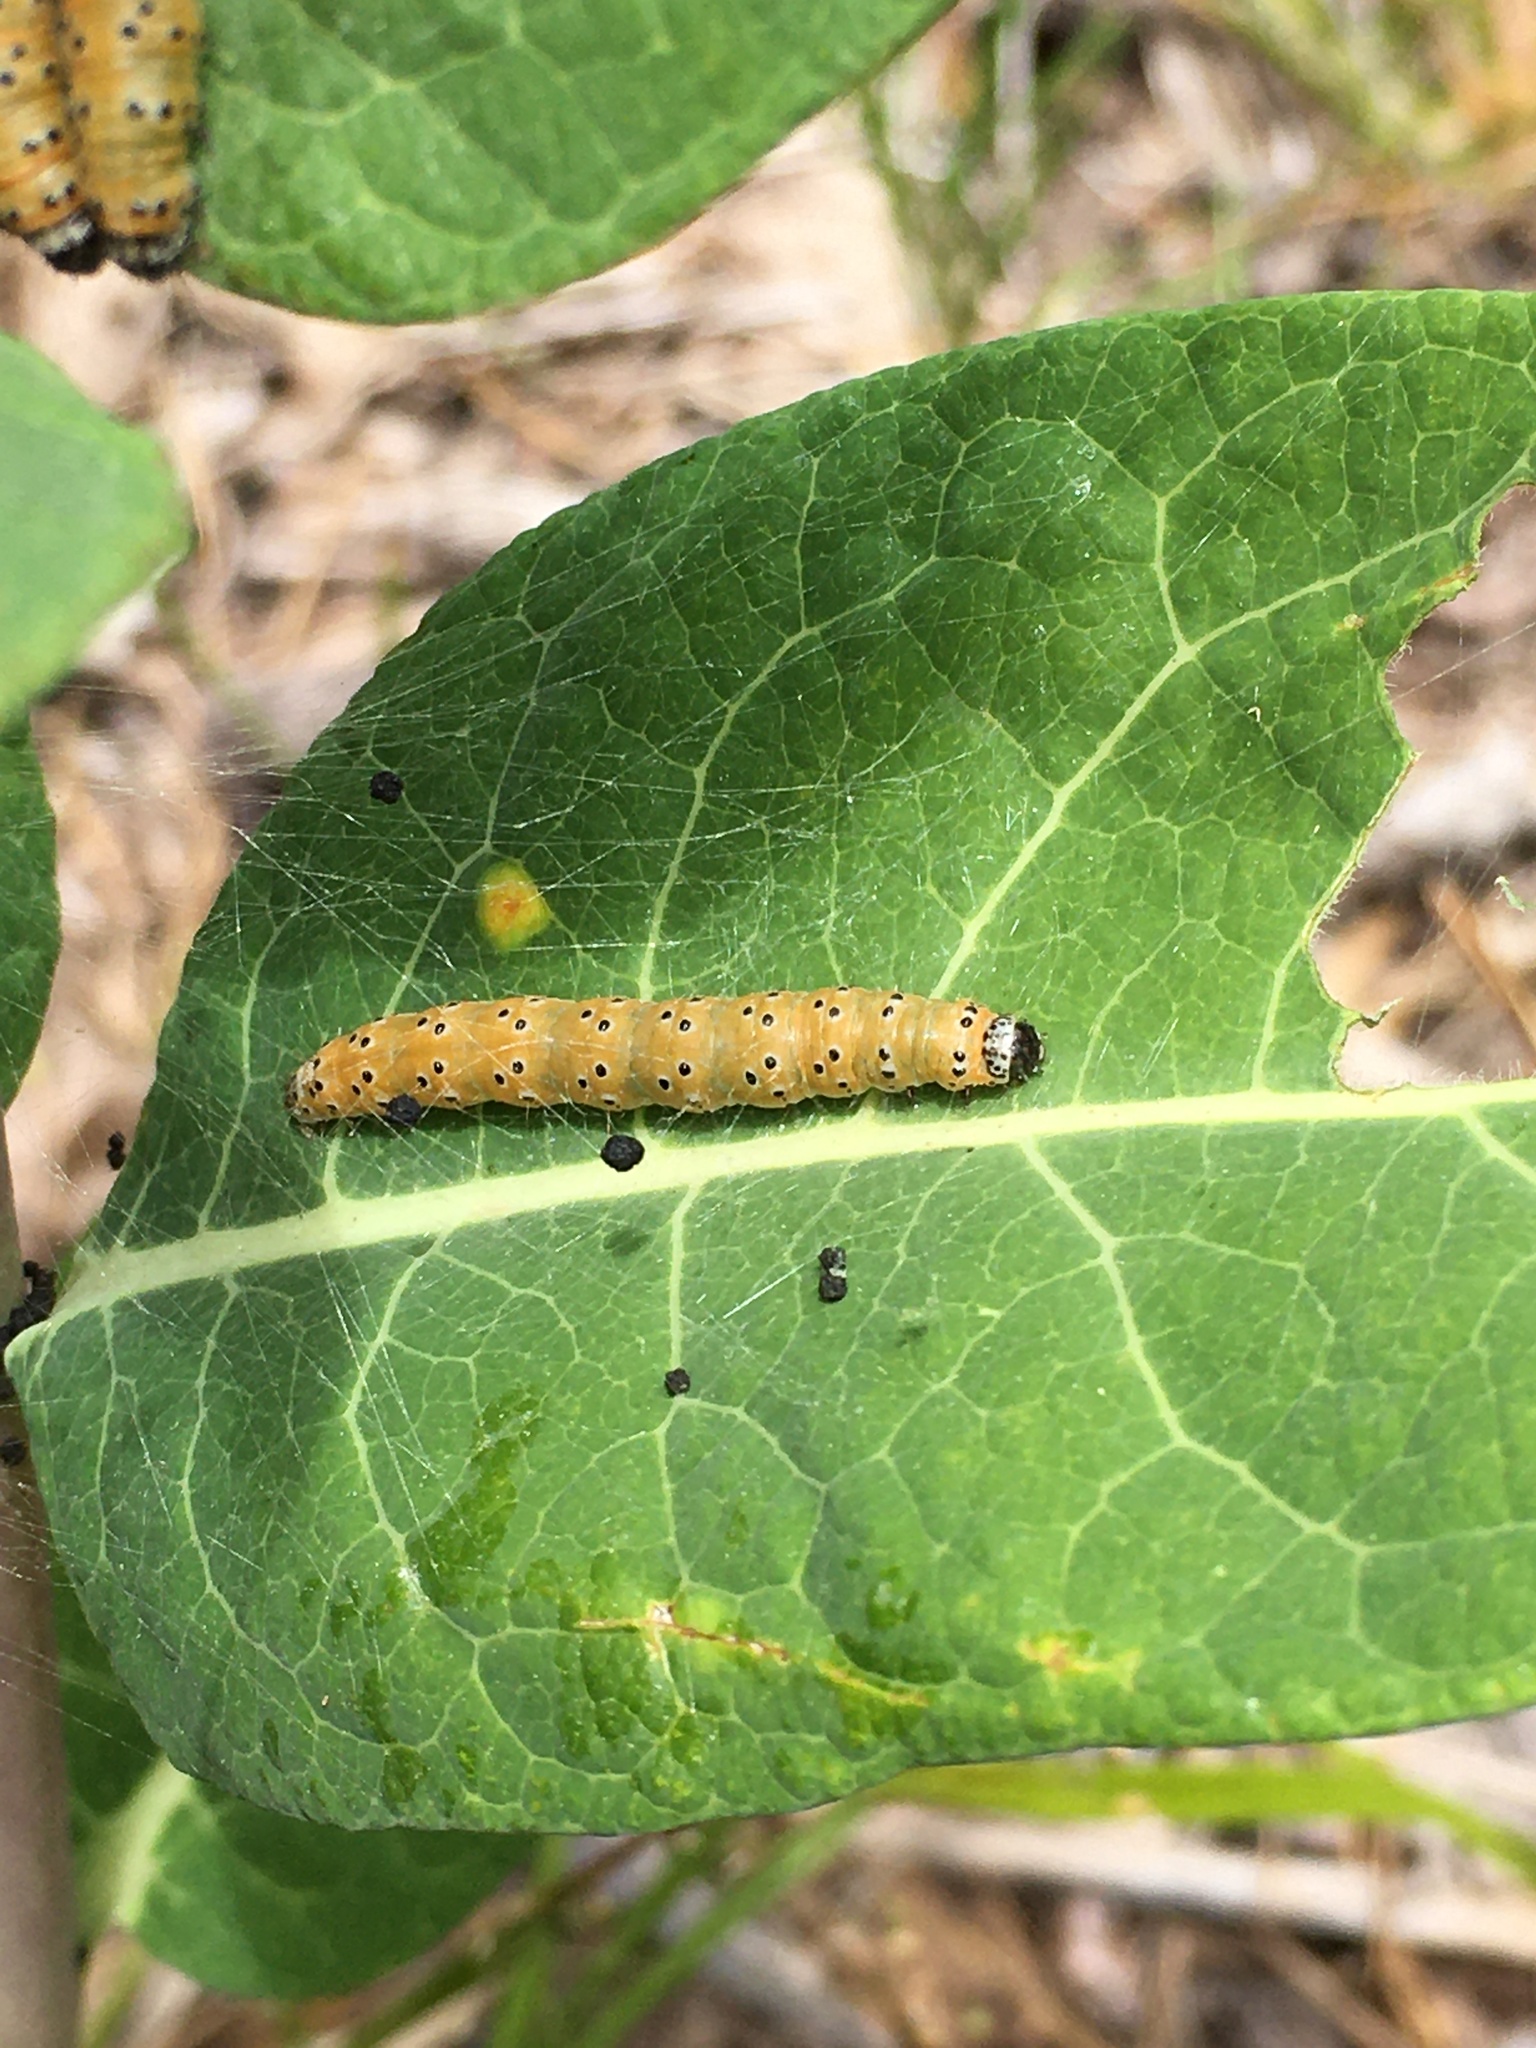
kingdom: Animalia
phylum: Arthropoda
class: Insecta
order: Lepidoptera
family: Crambidae
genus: Saucrobotys
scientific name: Saucrobotys futilalis
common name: Dogbane saucrobotys moth
